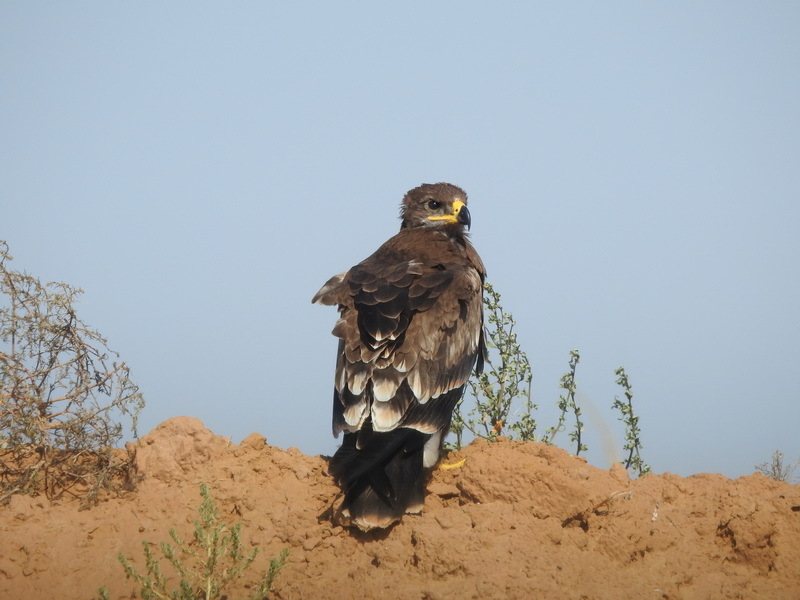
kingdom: Animalia
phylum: Chordata
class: Aves
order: Accipitriformes
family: Accipitridae
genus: Aquila
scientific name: Aquila nipalensis
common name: Steppe eagle
